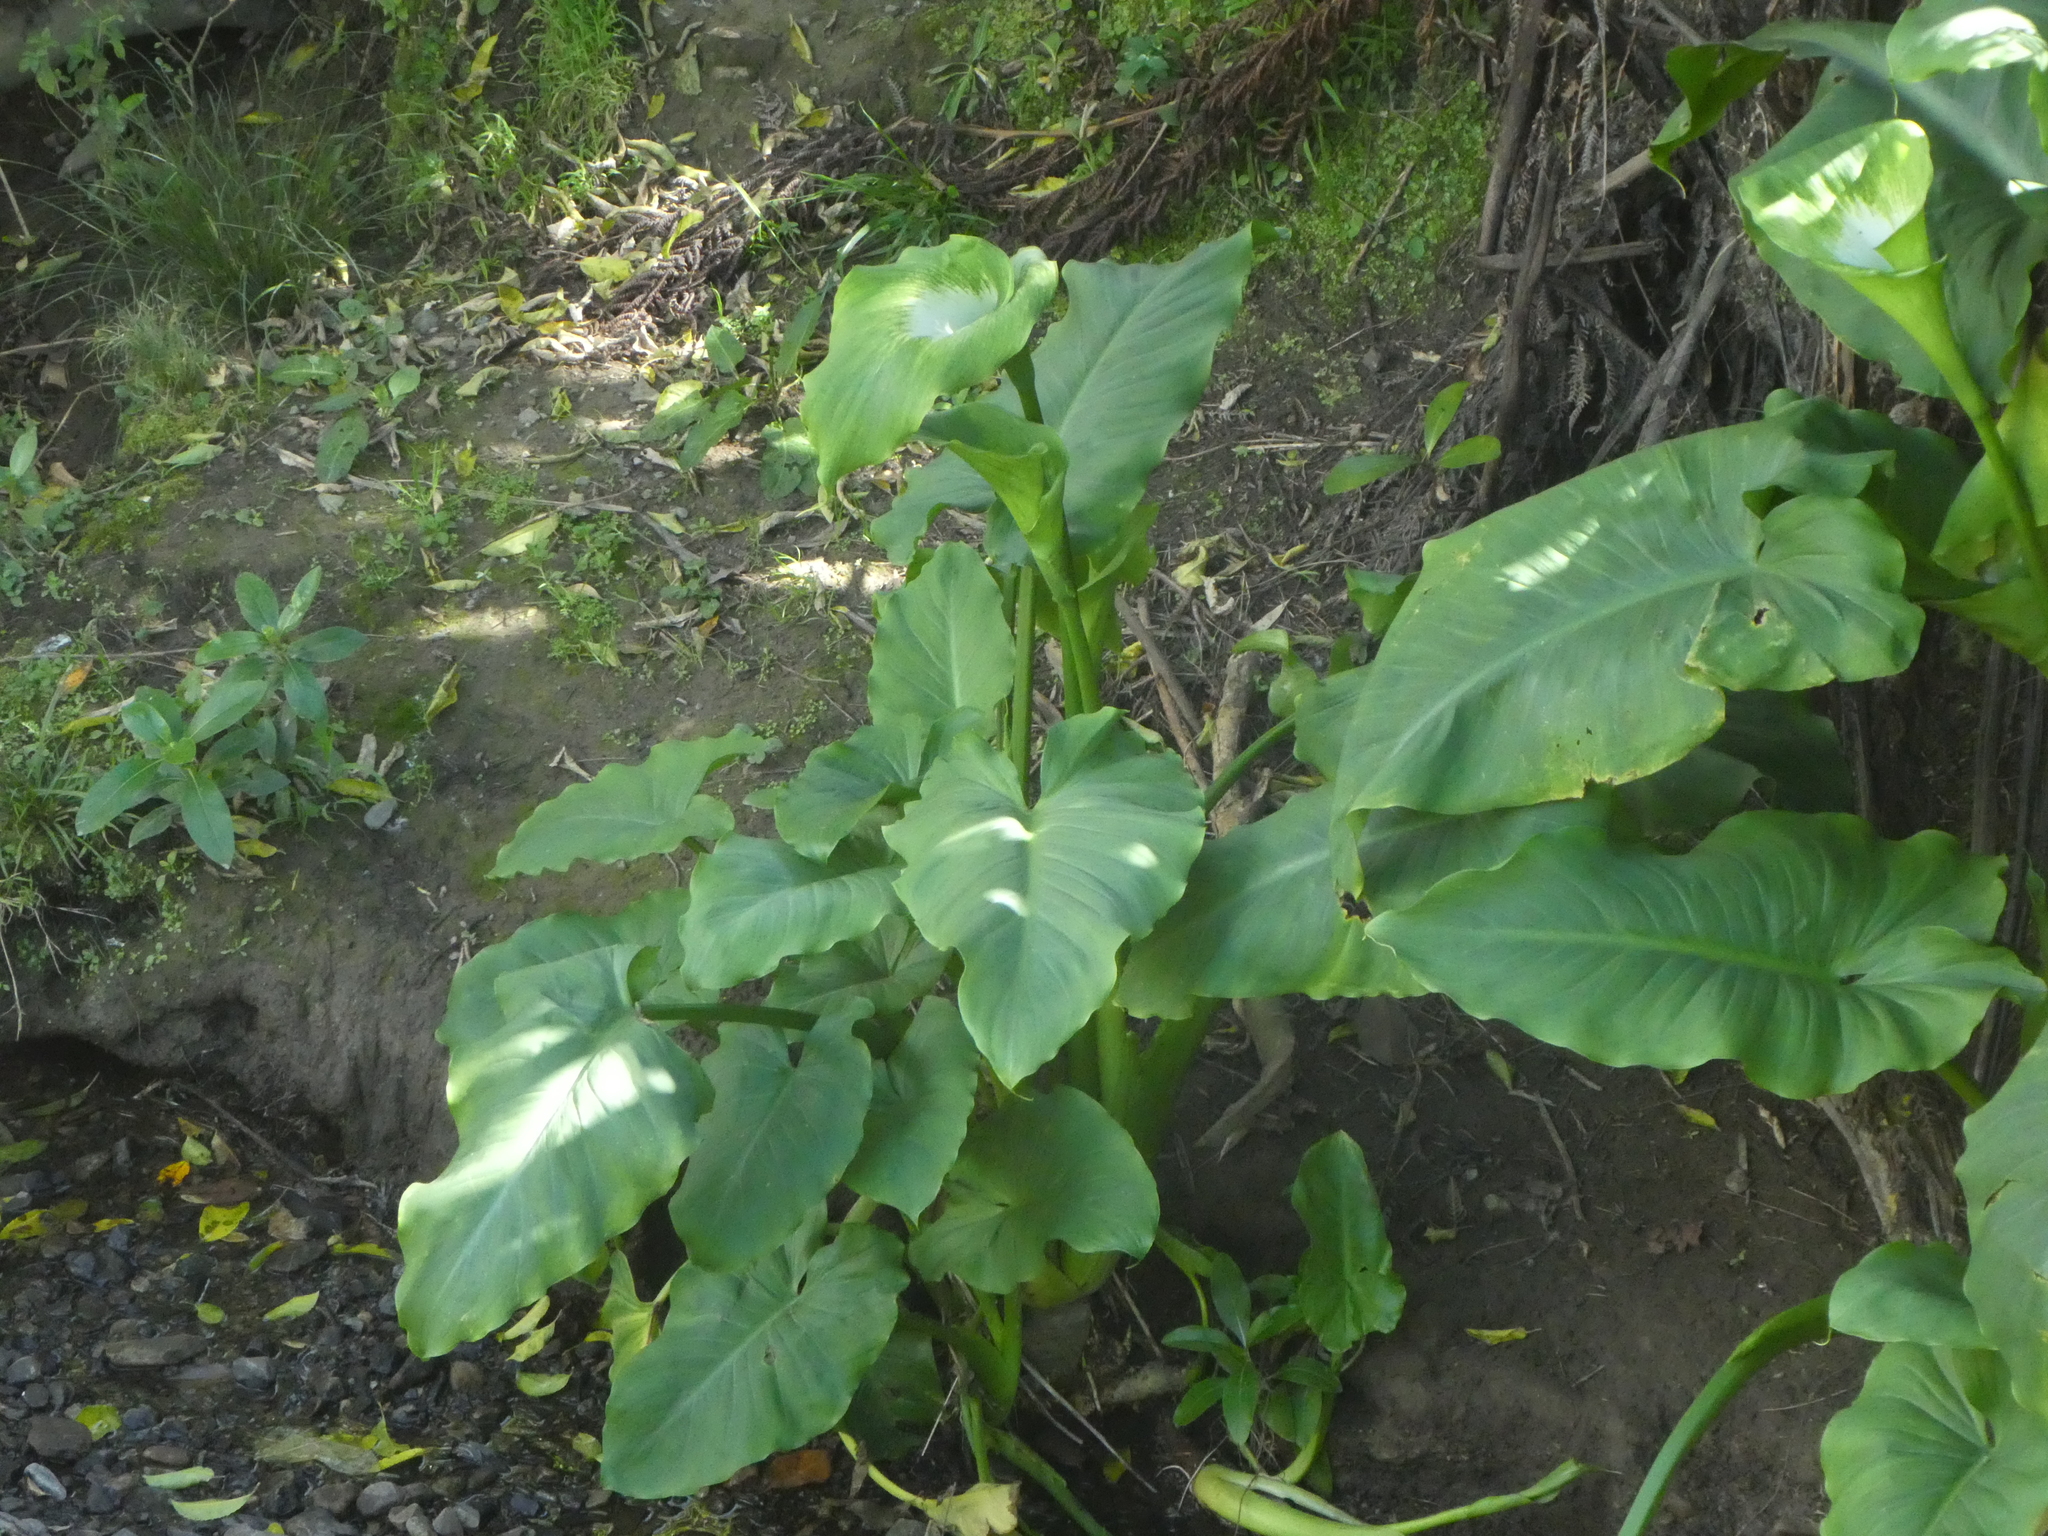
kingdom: Plantae
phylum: Tracheophyta
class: Liliopsida
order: Alismatales
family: Araceae
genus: Zantedeschia
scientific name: Zantedeschia aethiopica
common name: Altar-lily
